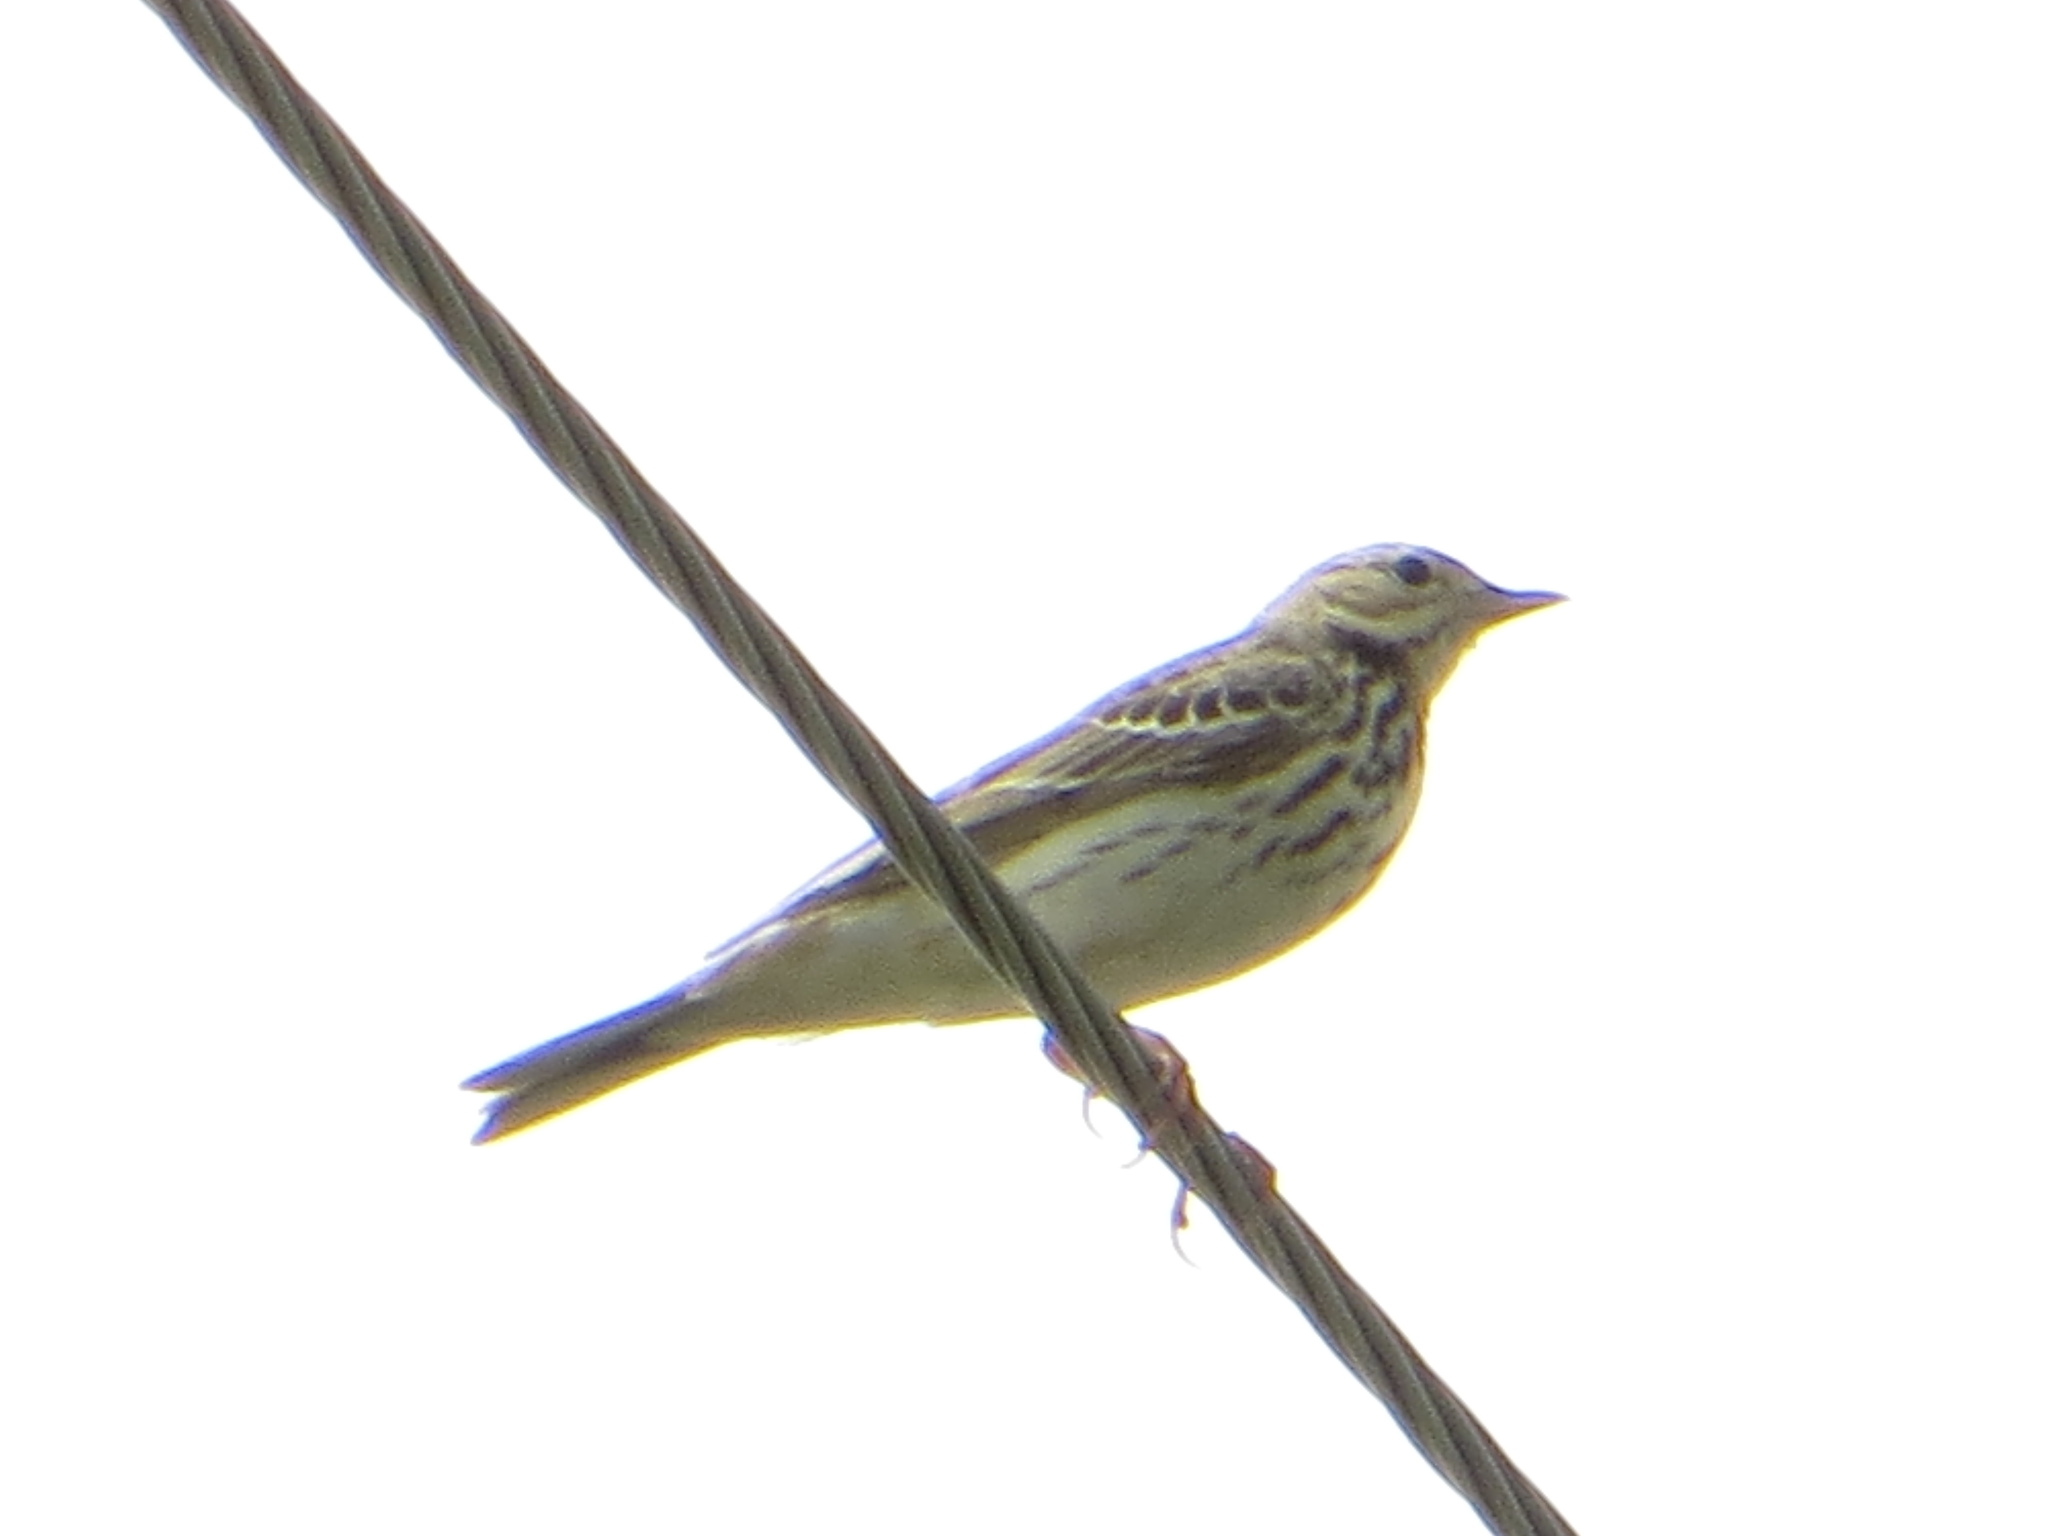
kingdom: Animalia
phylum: Chordata
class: Aves
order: Passeriformes
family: Motacillidae
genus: Anthus
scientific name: Anthus trivialis
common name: Tree pipit
